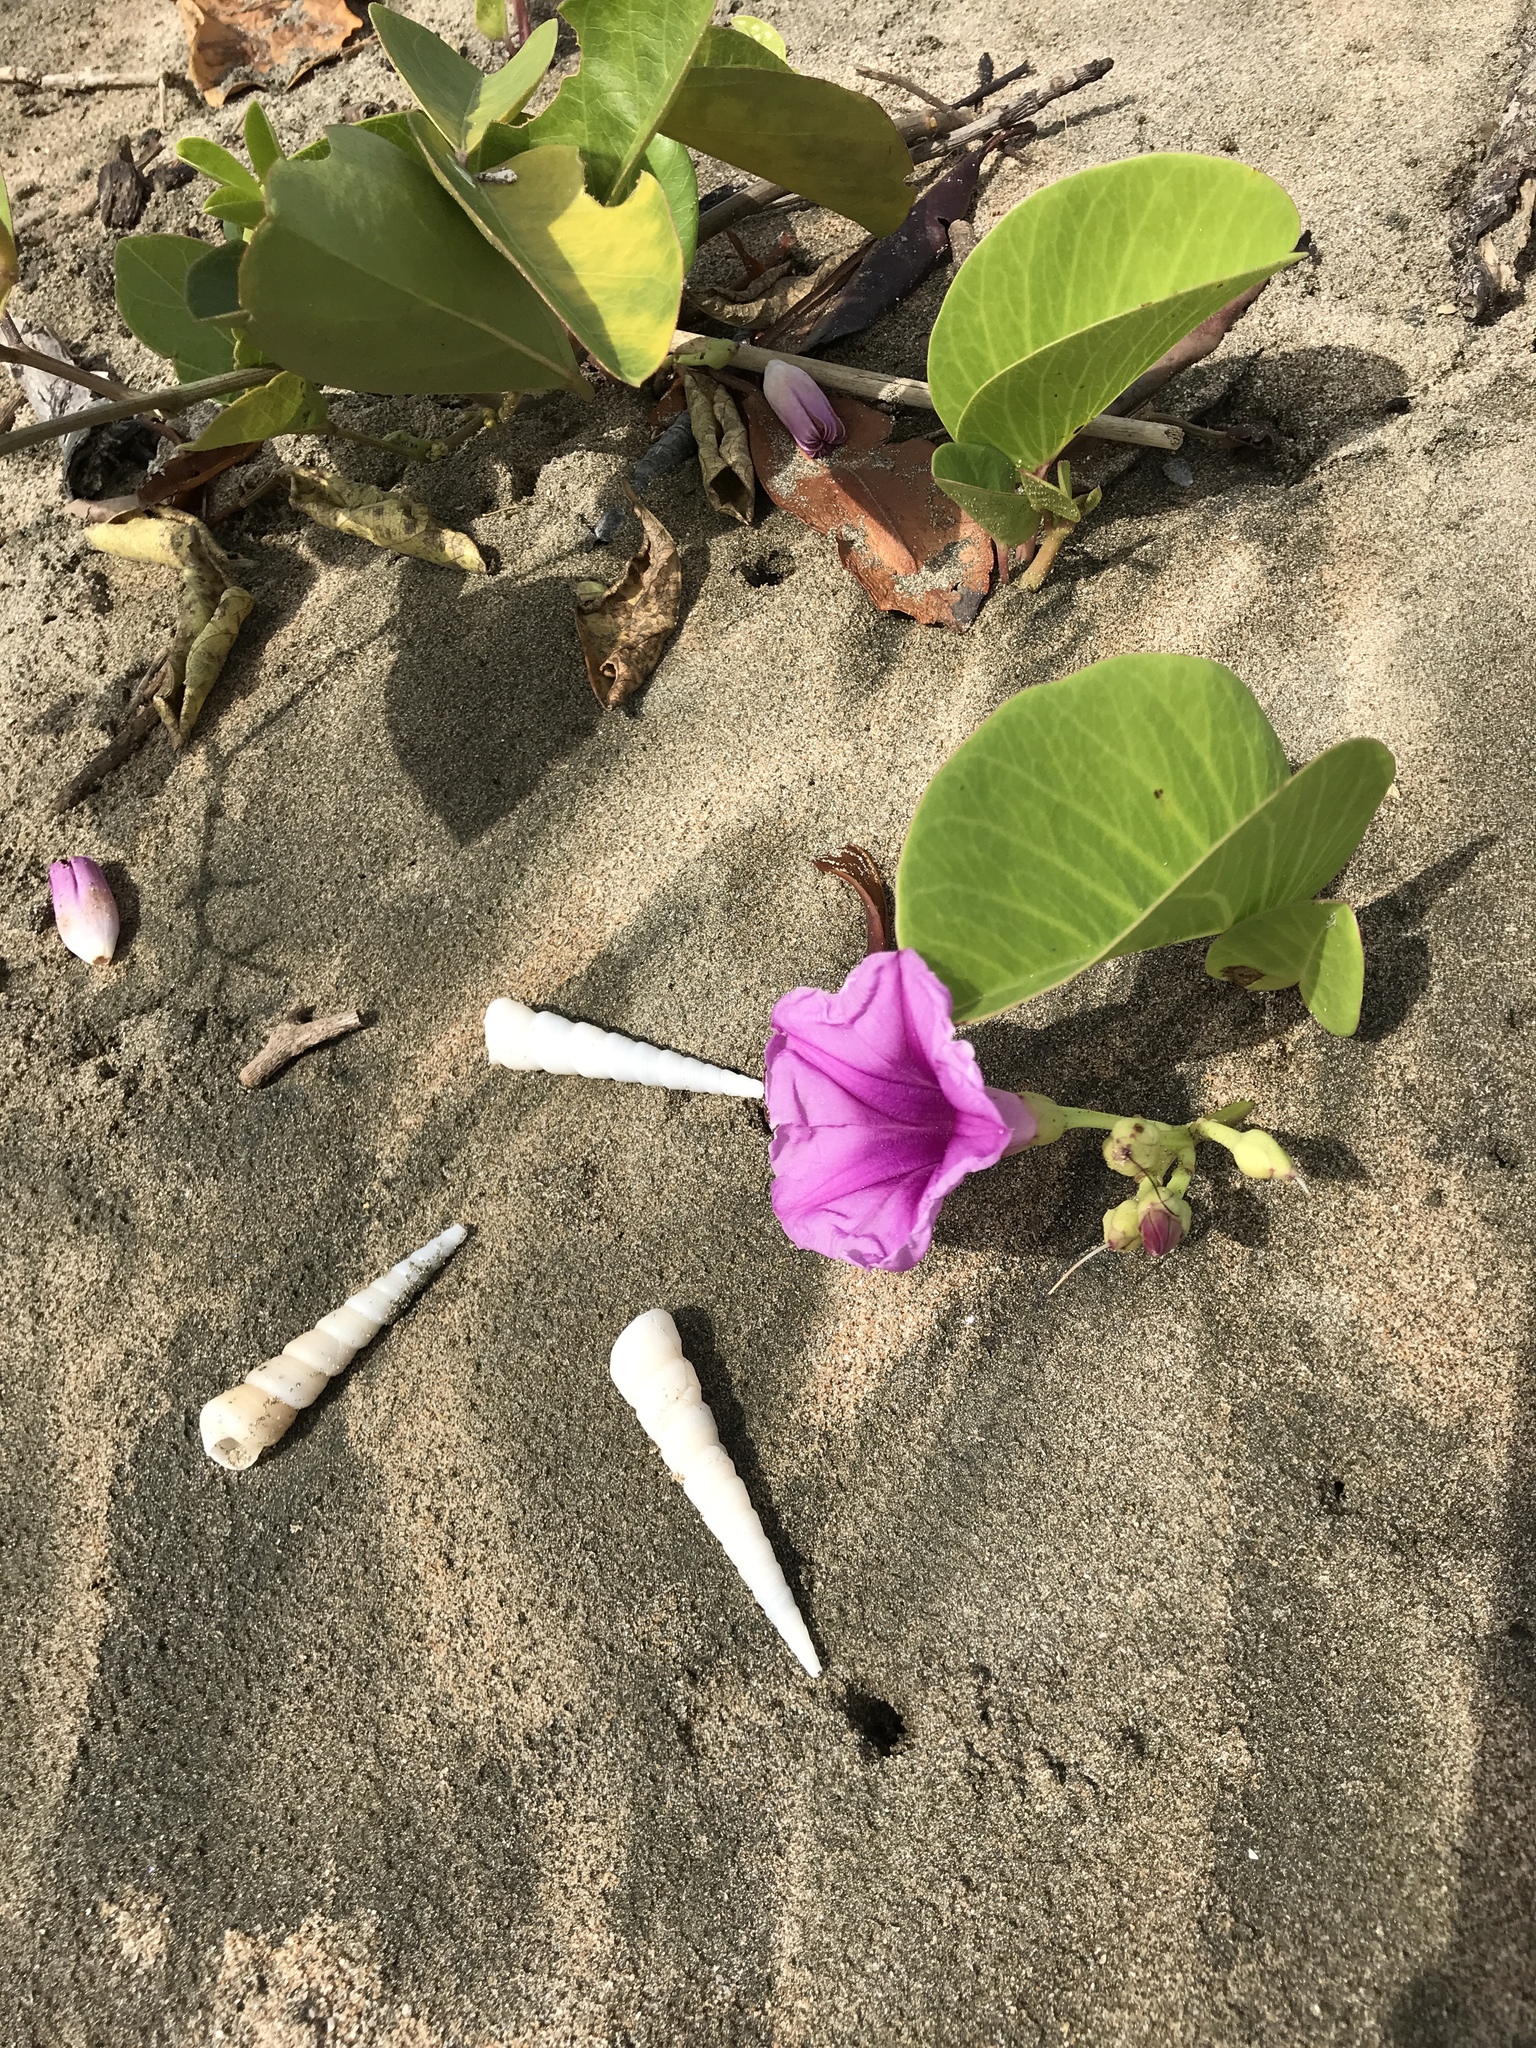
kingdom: Plantae
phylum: Tracheophyta
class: Magnoliopsida
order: Solanales
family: Convolvulaceae
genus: Ipomoea
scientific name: Ipomoea pes-caprae
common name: Beach morning glory
